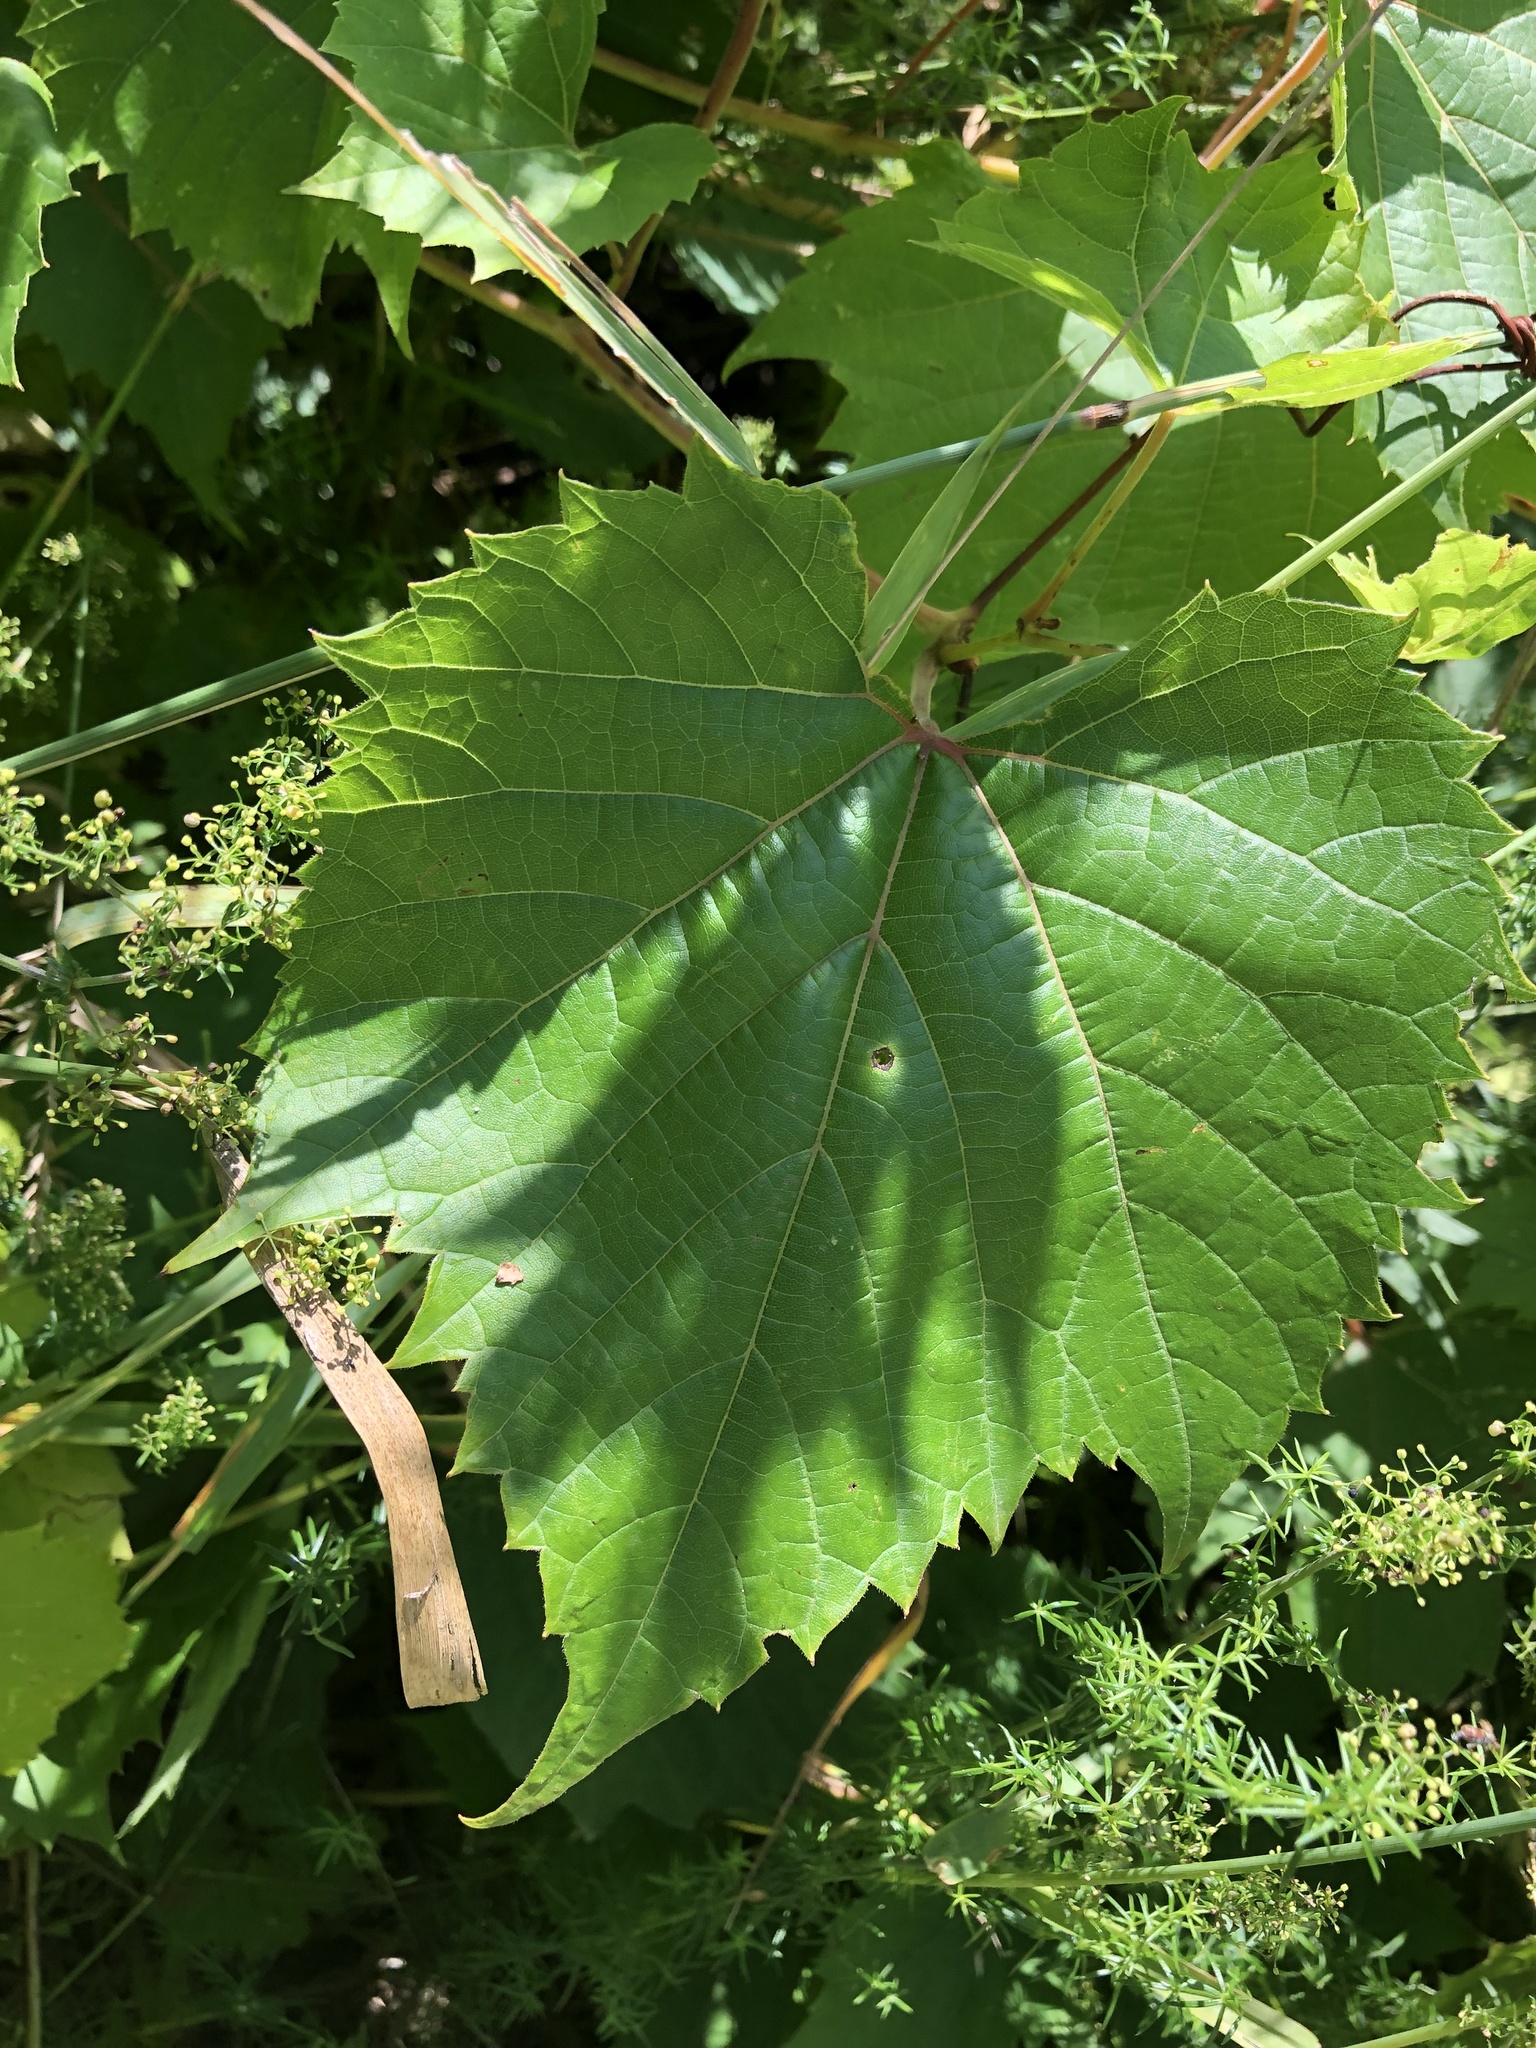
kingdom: Plantae
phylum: Tracheophyta
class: Magnoliopsida
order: Vitales
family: Vitaceae
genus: Vitis
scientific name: Vitis riparia
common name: Frost grape
